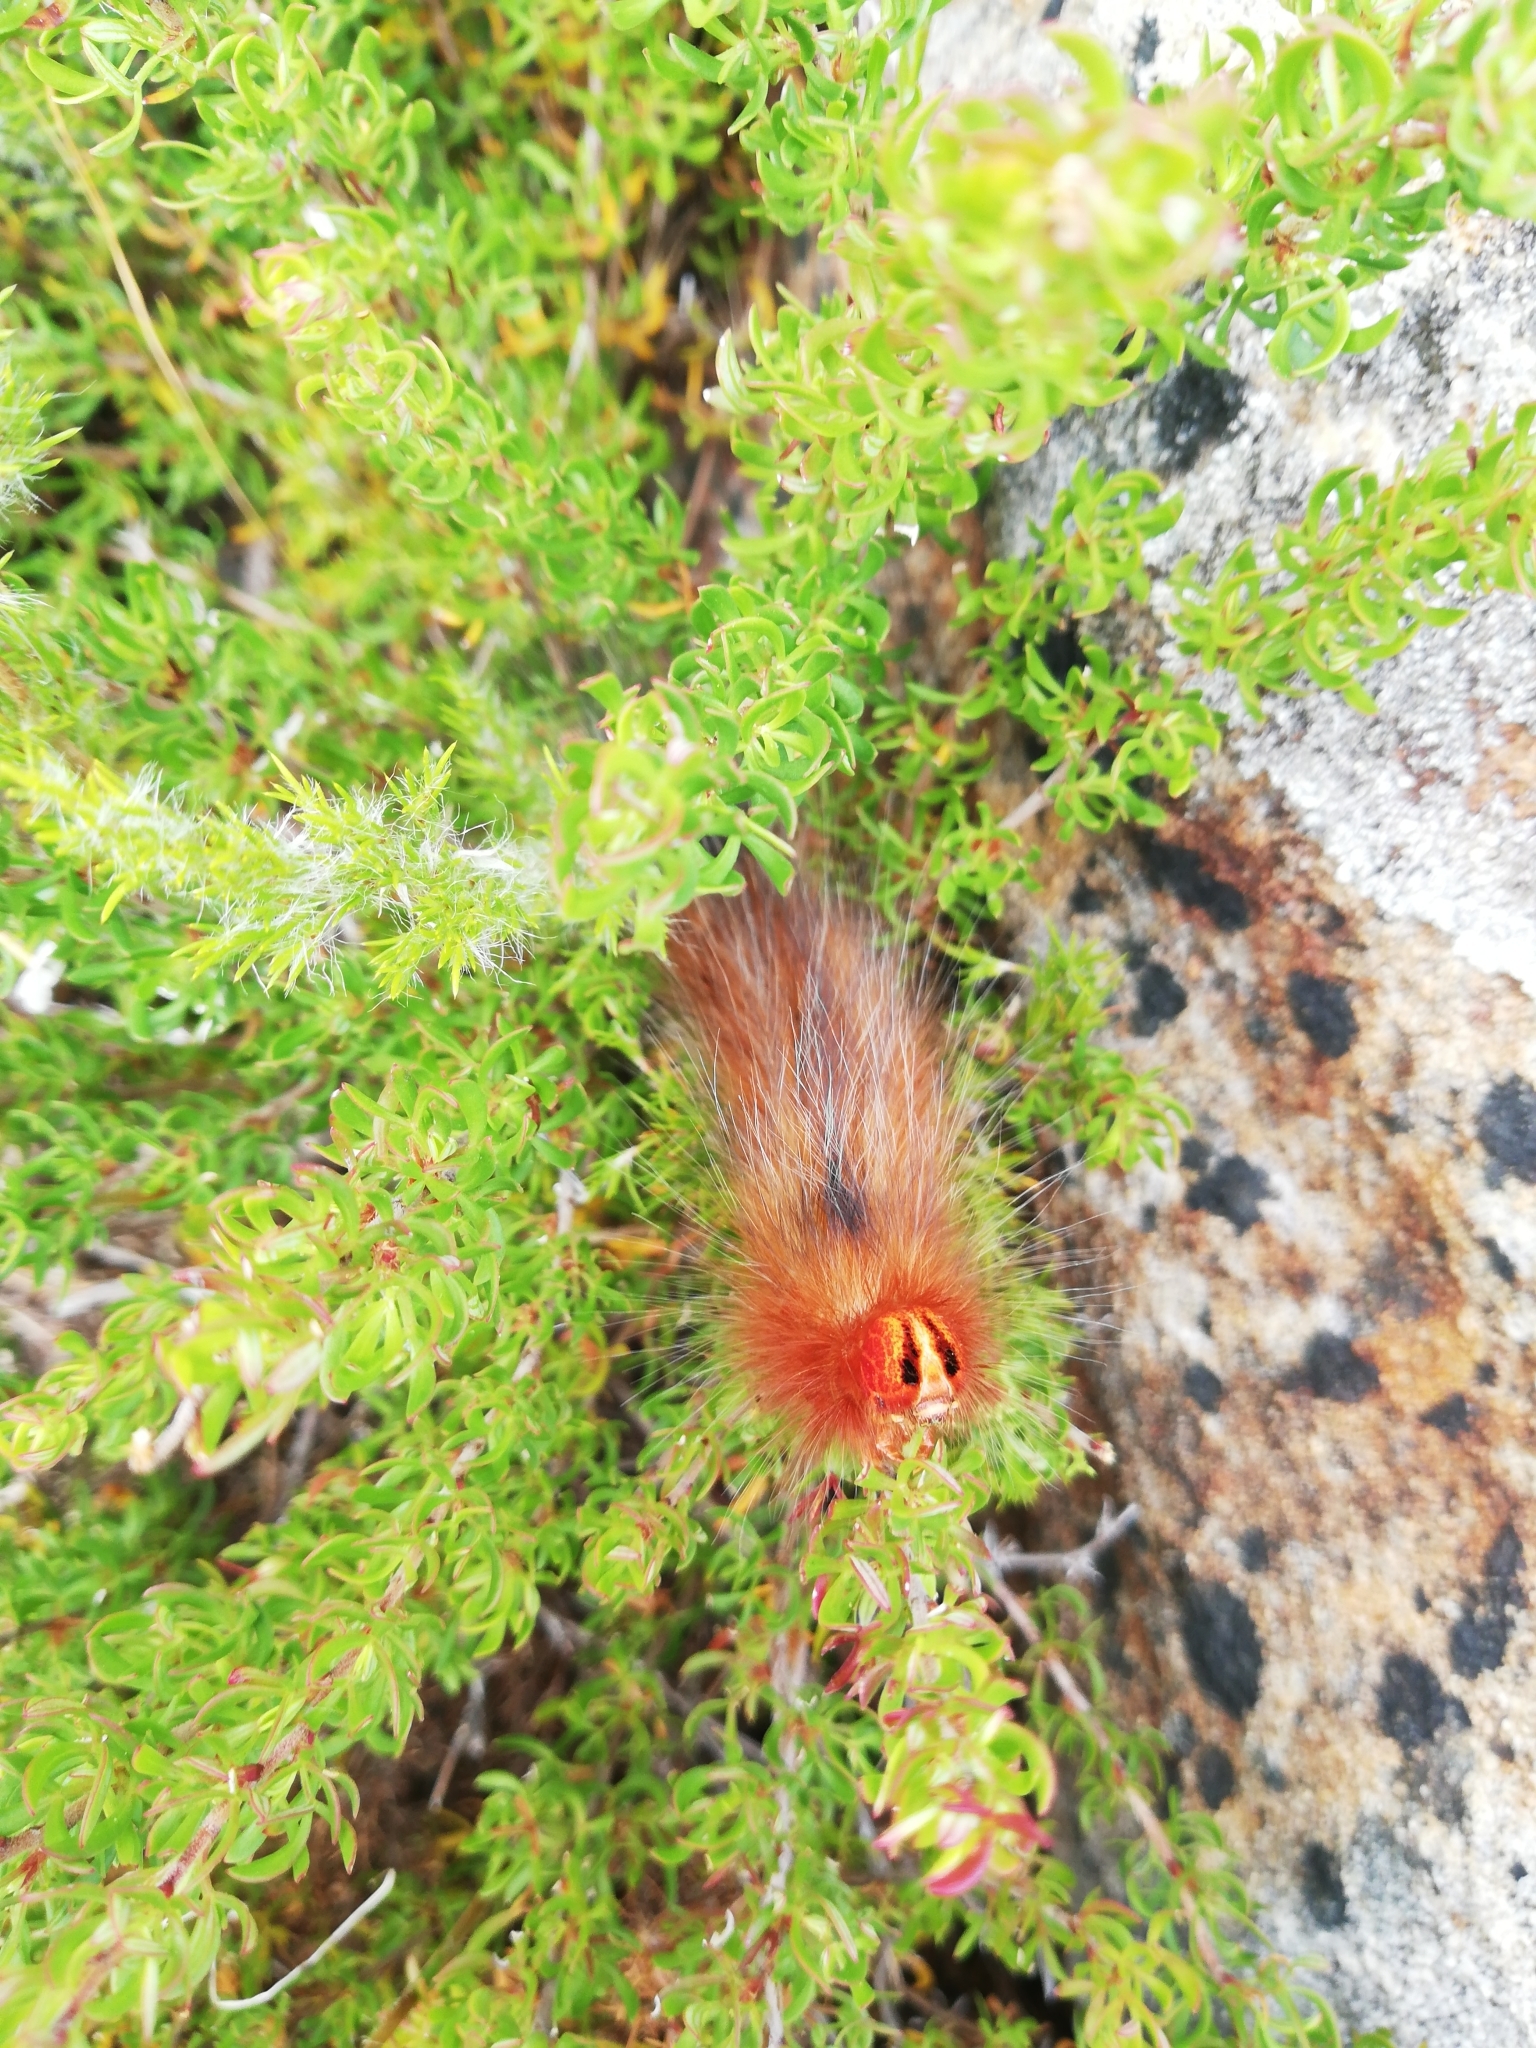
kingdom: Animalia
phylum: Arthropoda
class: Insecta
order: Lepidoptera
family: Lasiocampidae
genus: Mesocelis
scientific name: Mesocelis monticola
